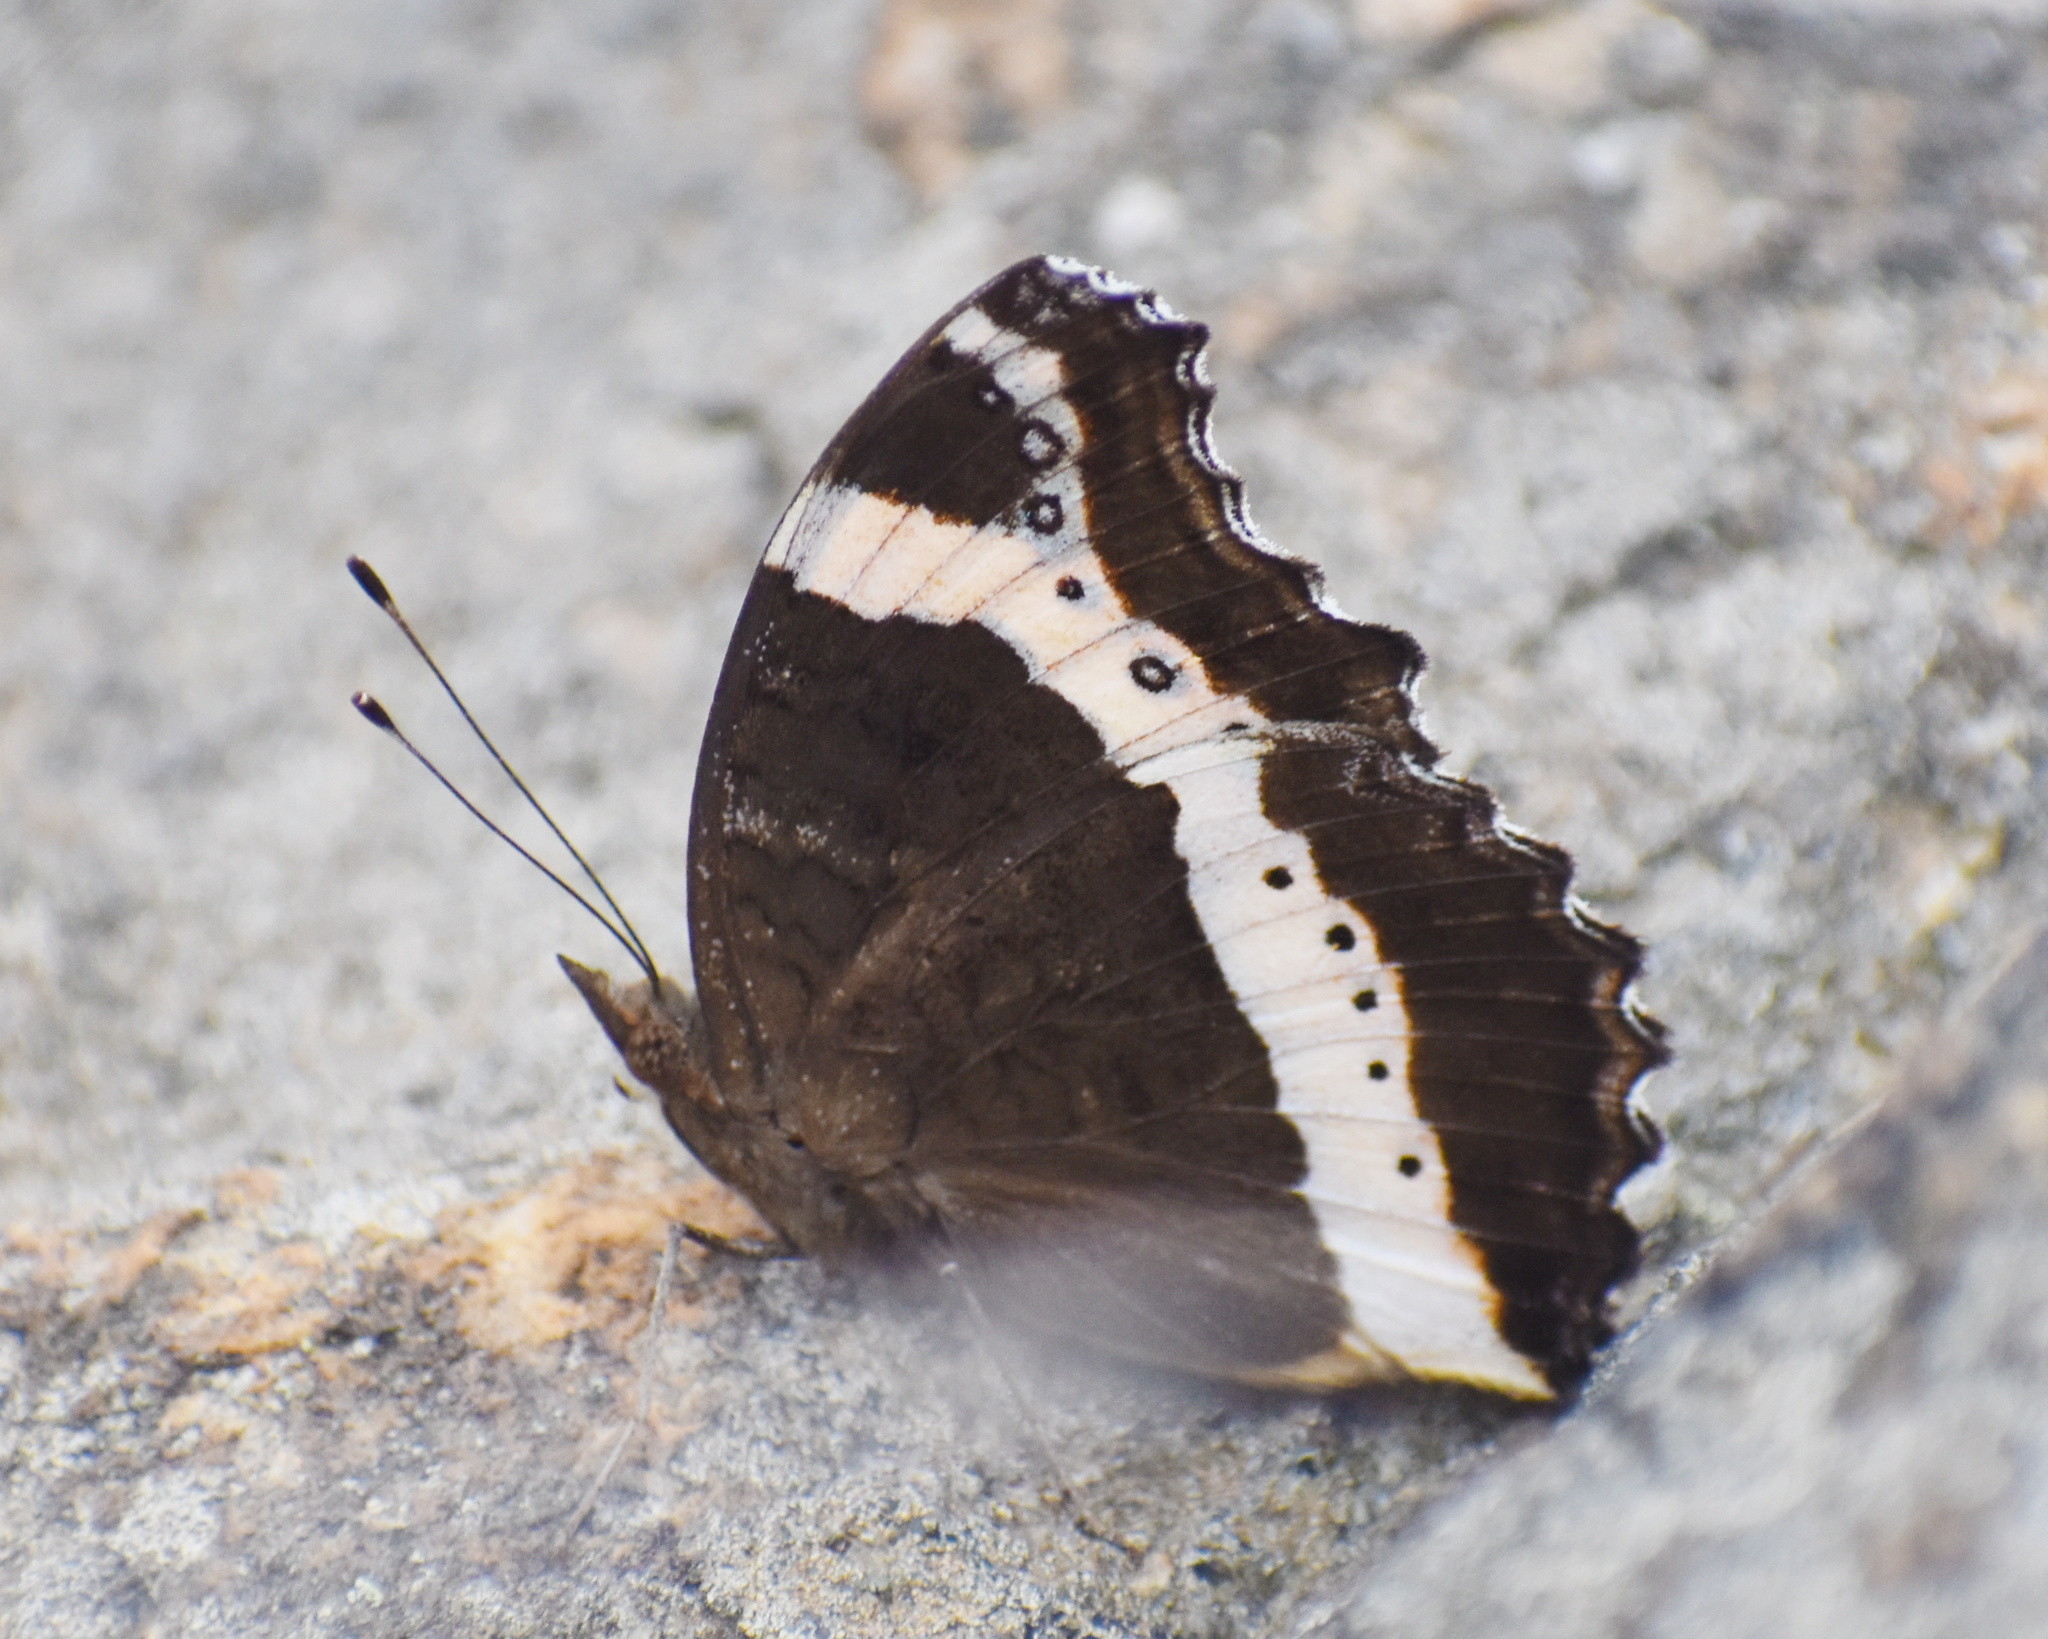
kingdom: Animalia
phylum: Arthropoda
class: Insecta
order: Lepidoptera
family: Nymphalidae
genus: Junonia
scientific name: Junonia archesia
